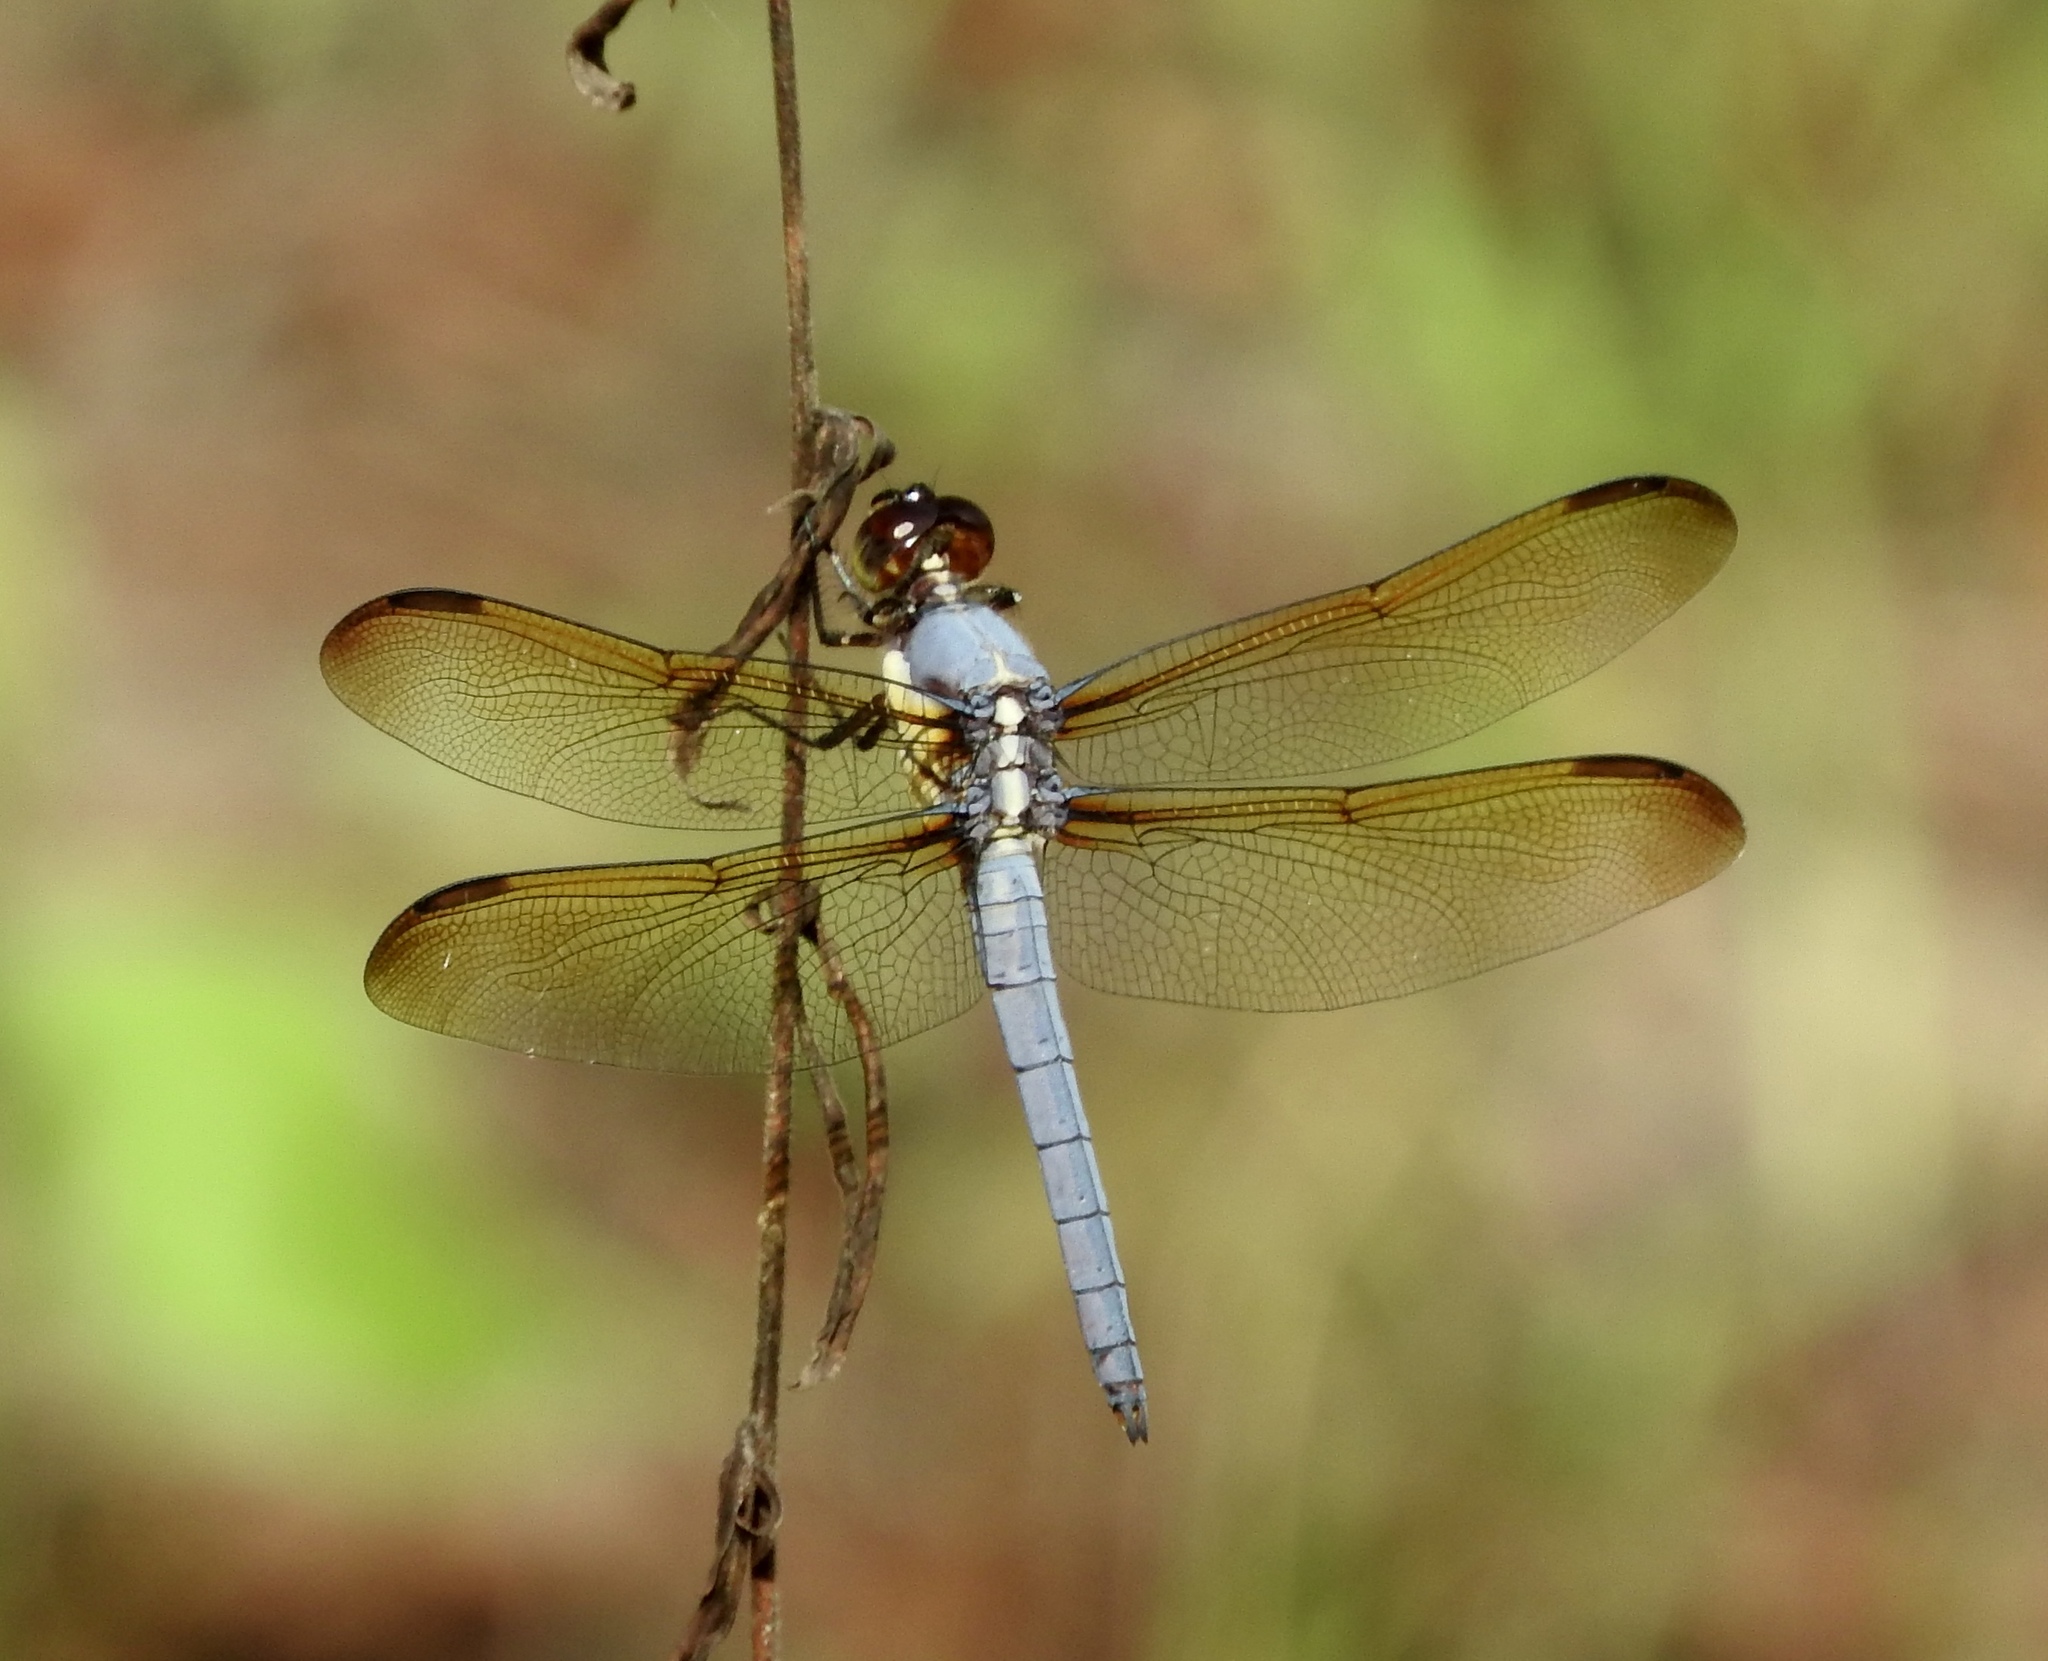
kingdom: Animalia
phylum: Arthropoda
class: Insecta
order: Odonata
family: Libellulidae
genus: Libellula
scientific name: Libellula flavida
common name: Yellow-sided skimmer
